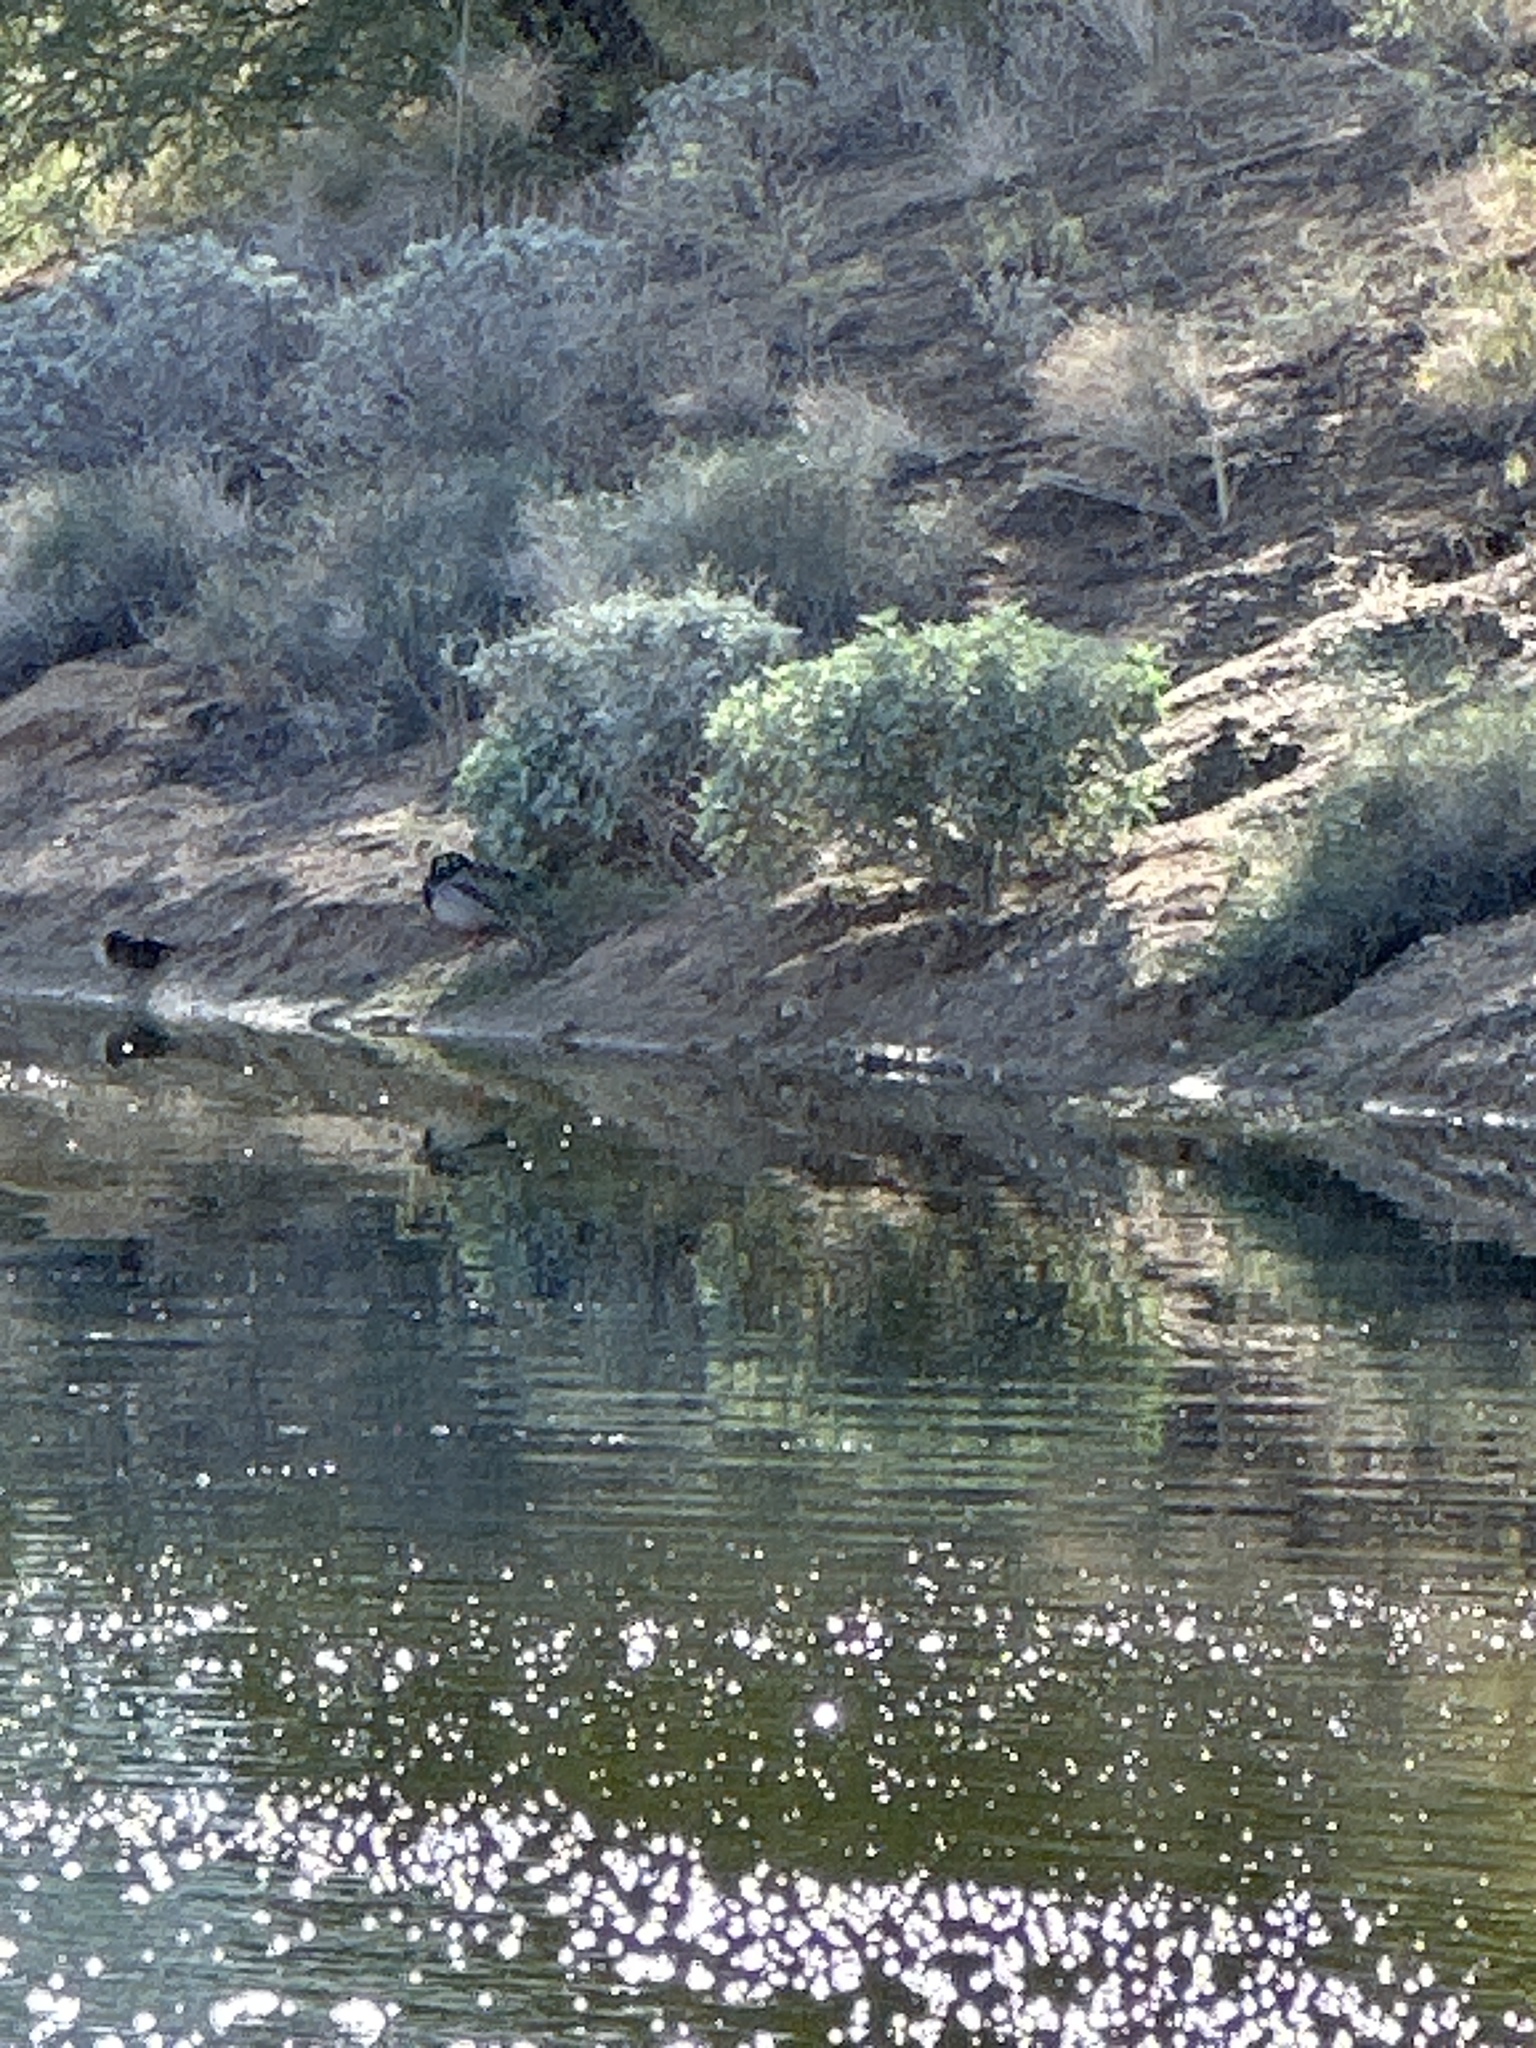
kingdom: Animalia
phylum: Chordata
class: Aves
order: Anseriformes
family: Anatidae
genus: Anas
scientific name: Anas platyrhynchos
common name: Mallard
